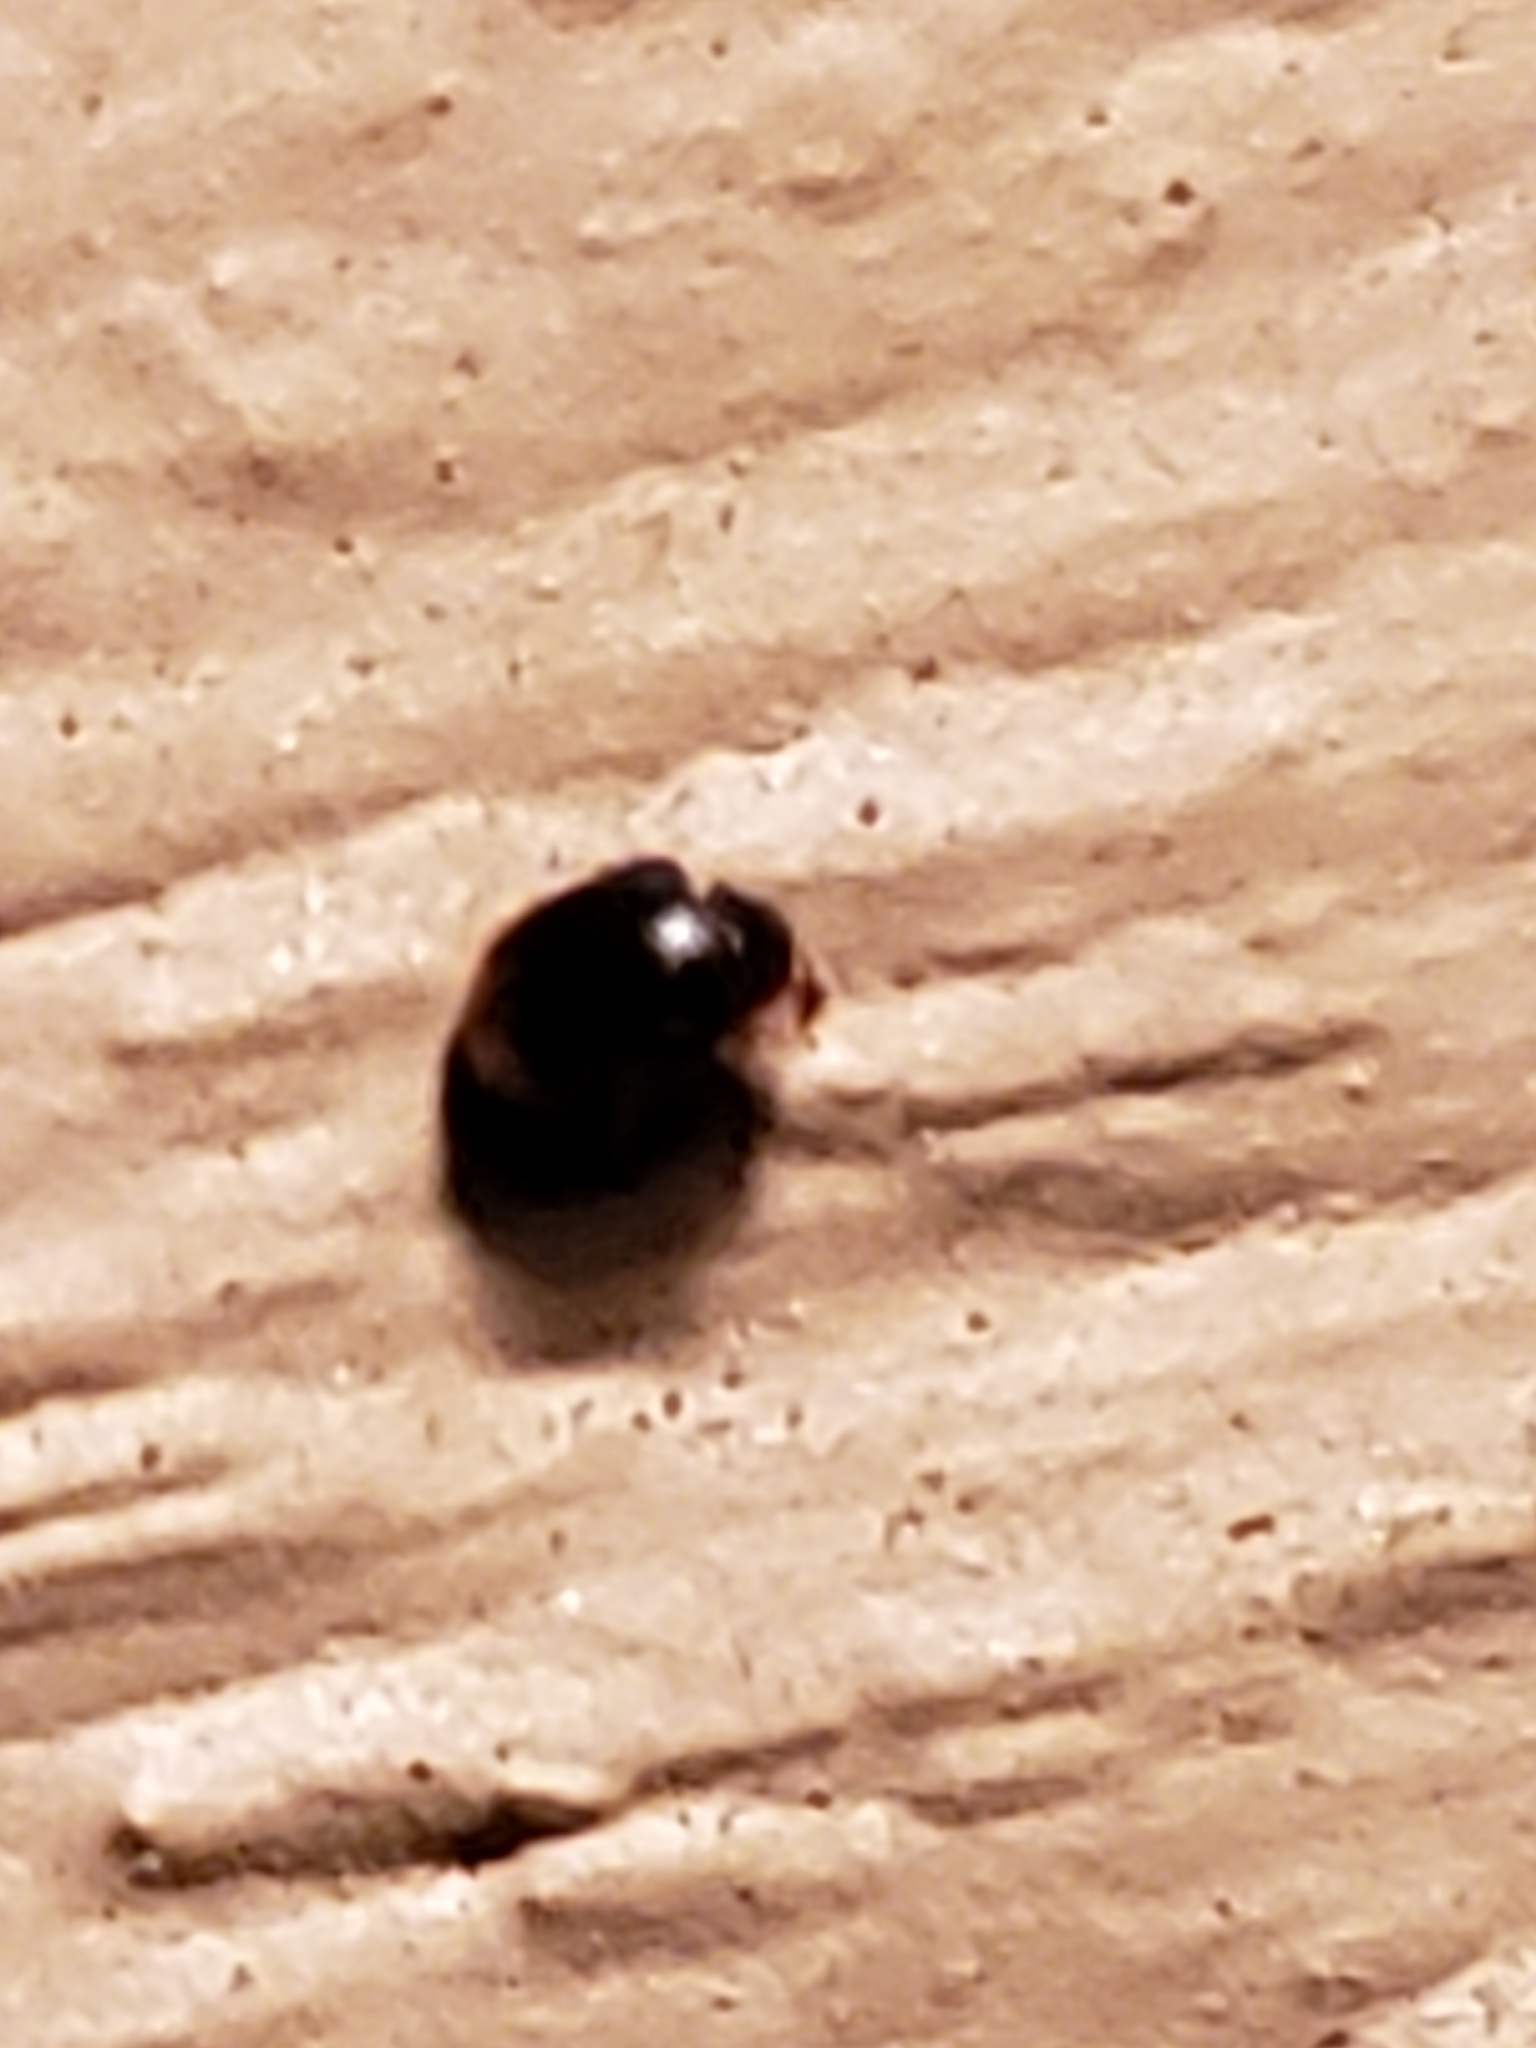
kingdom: Animalia
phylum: Arthropoda
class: Insecta
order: Coleoptera
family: Coccinellidae
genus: Diomus
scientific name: Diomus terminatus
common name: Firefly duskyling
